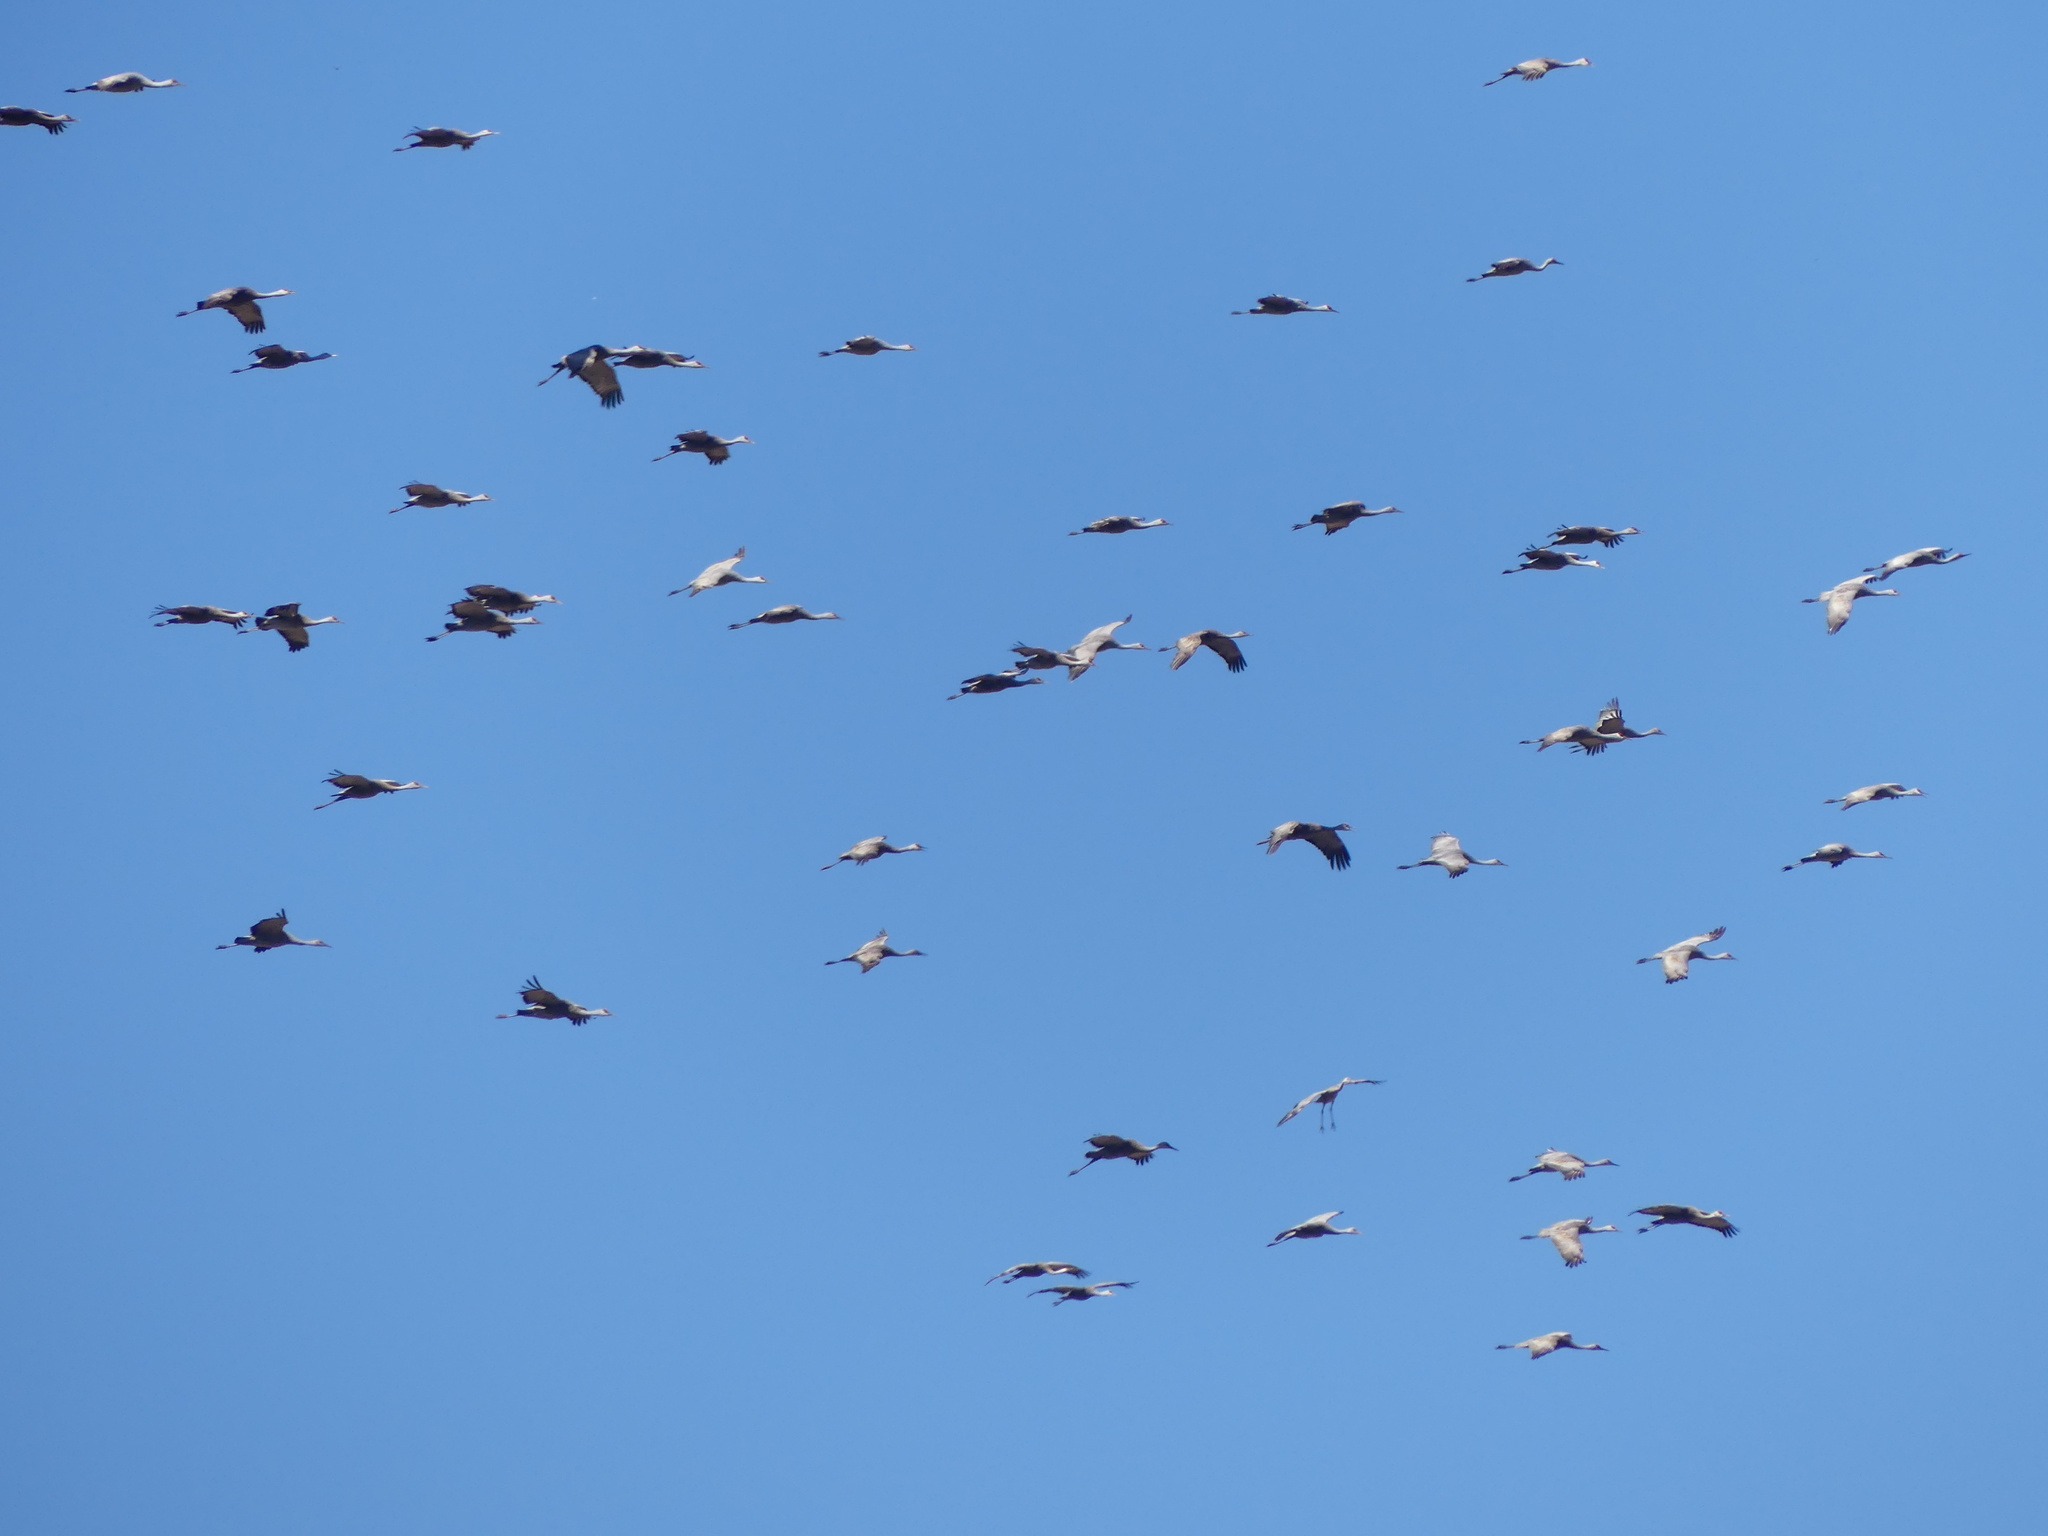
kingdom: Animalia
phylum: Chordata
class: Aves
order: Gruiformes
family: Gruidae
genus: Grus
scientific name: Grus canadensis
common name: Sandhill crane
